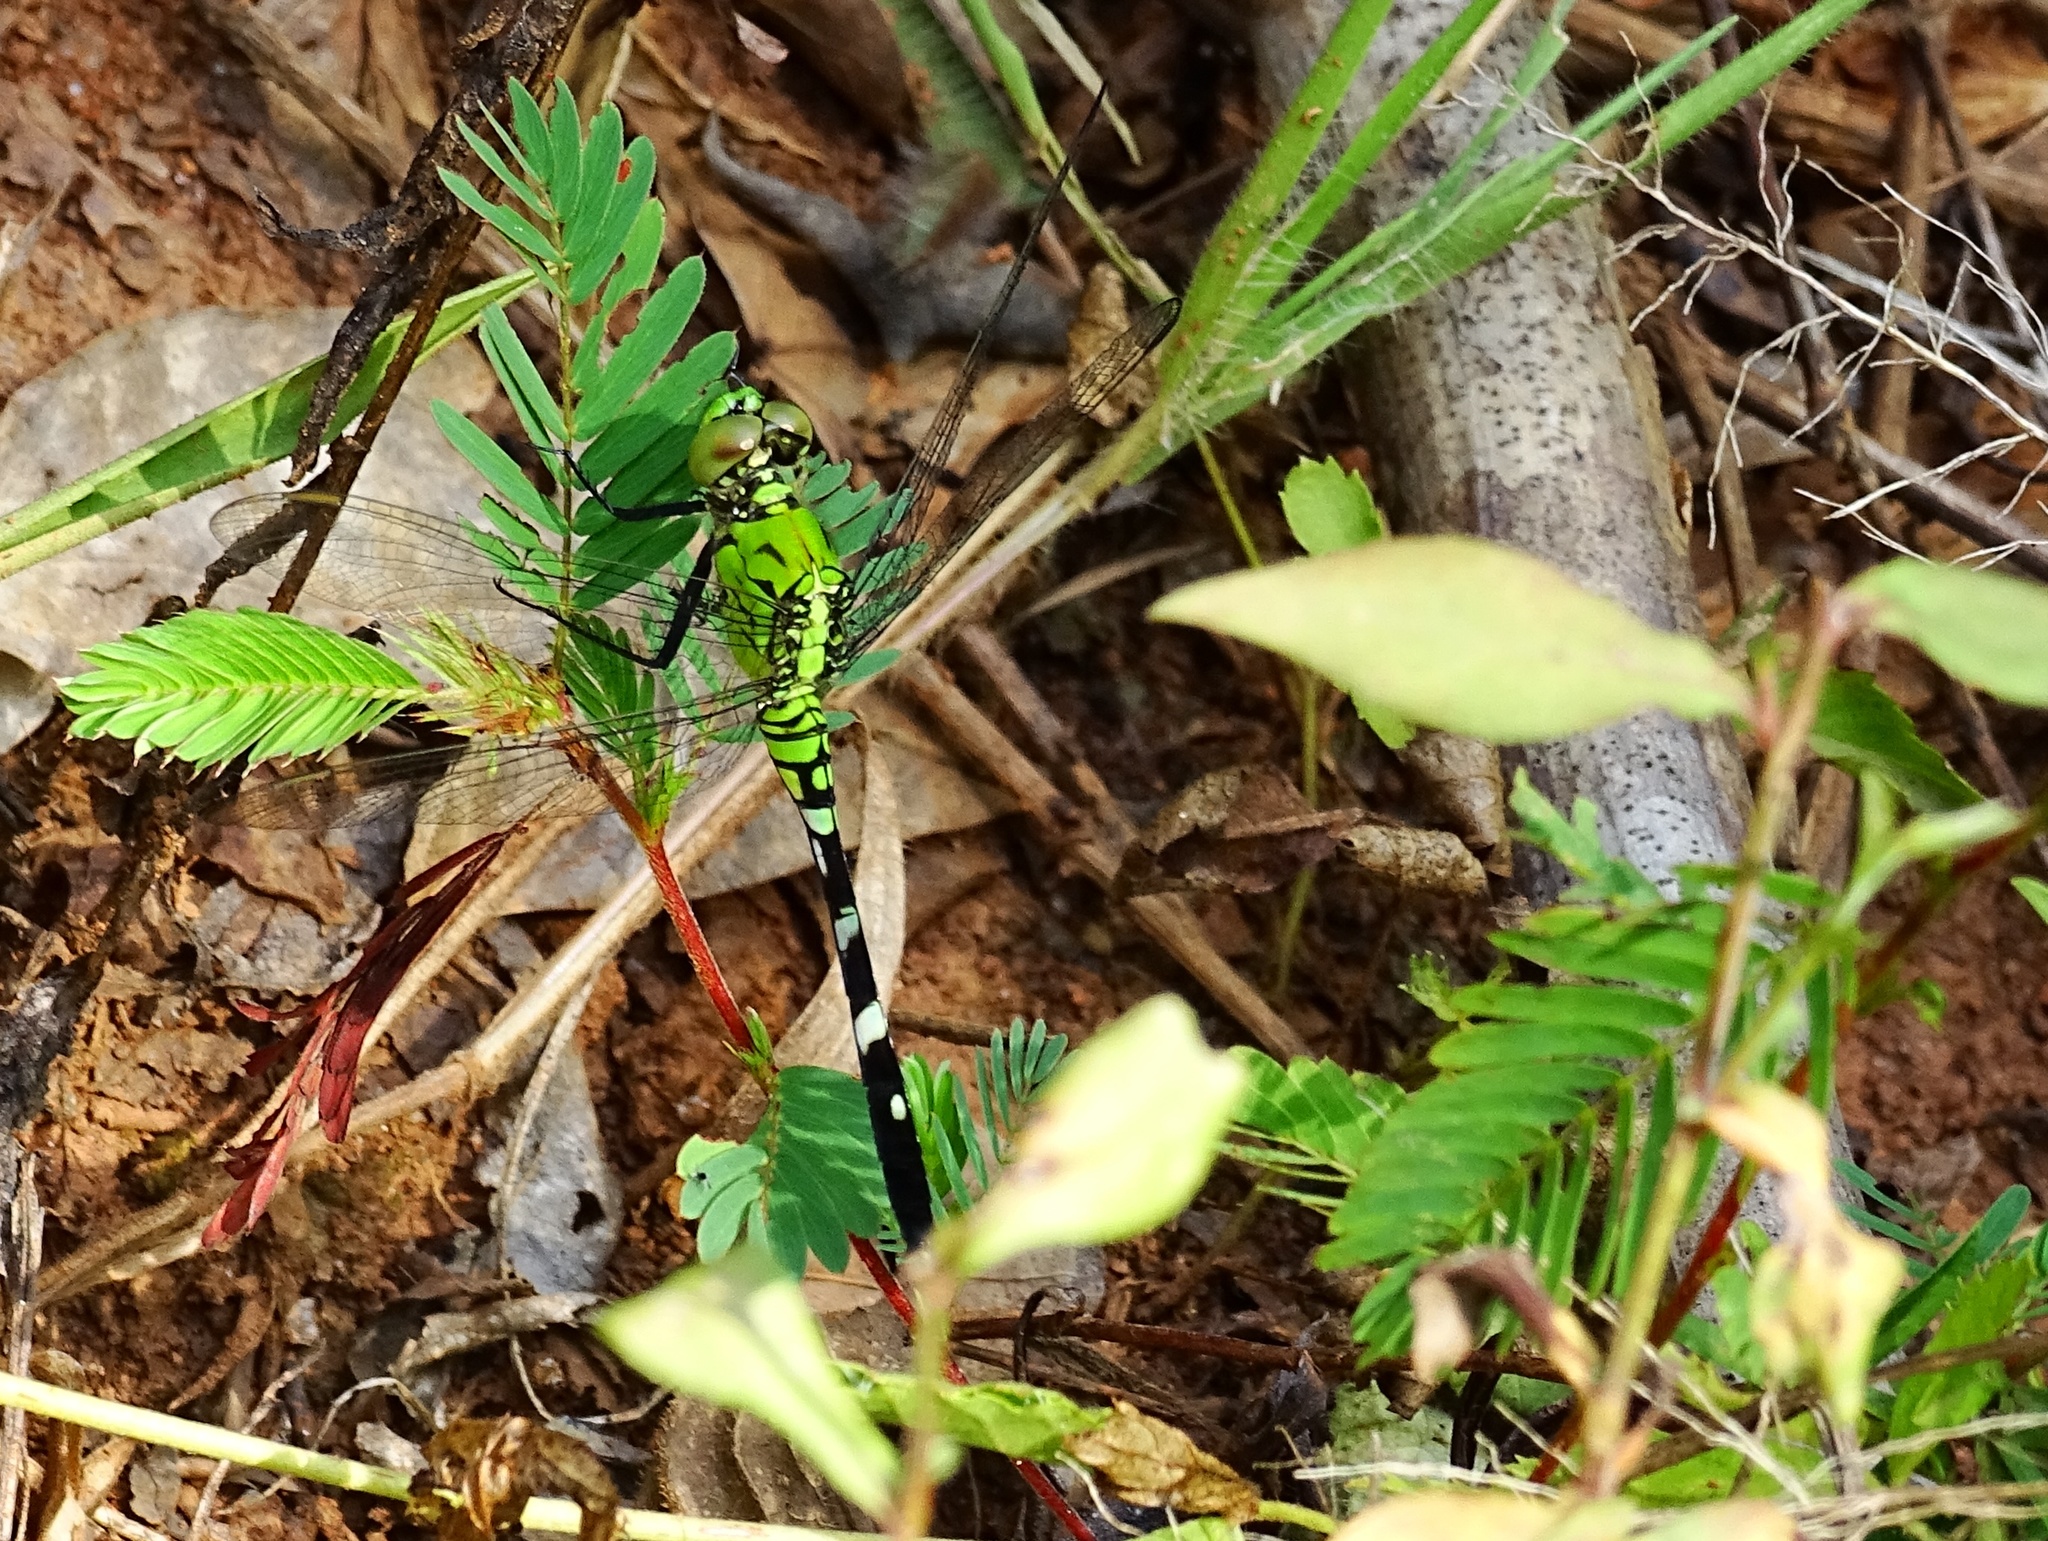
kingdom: Animalia
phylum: Arthropoda
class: Insecta
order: Odonata
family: Libellulidae
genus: Erythemis
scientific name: Erythemis simplicicollis
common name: Eastern pondhawk
